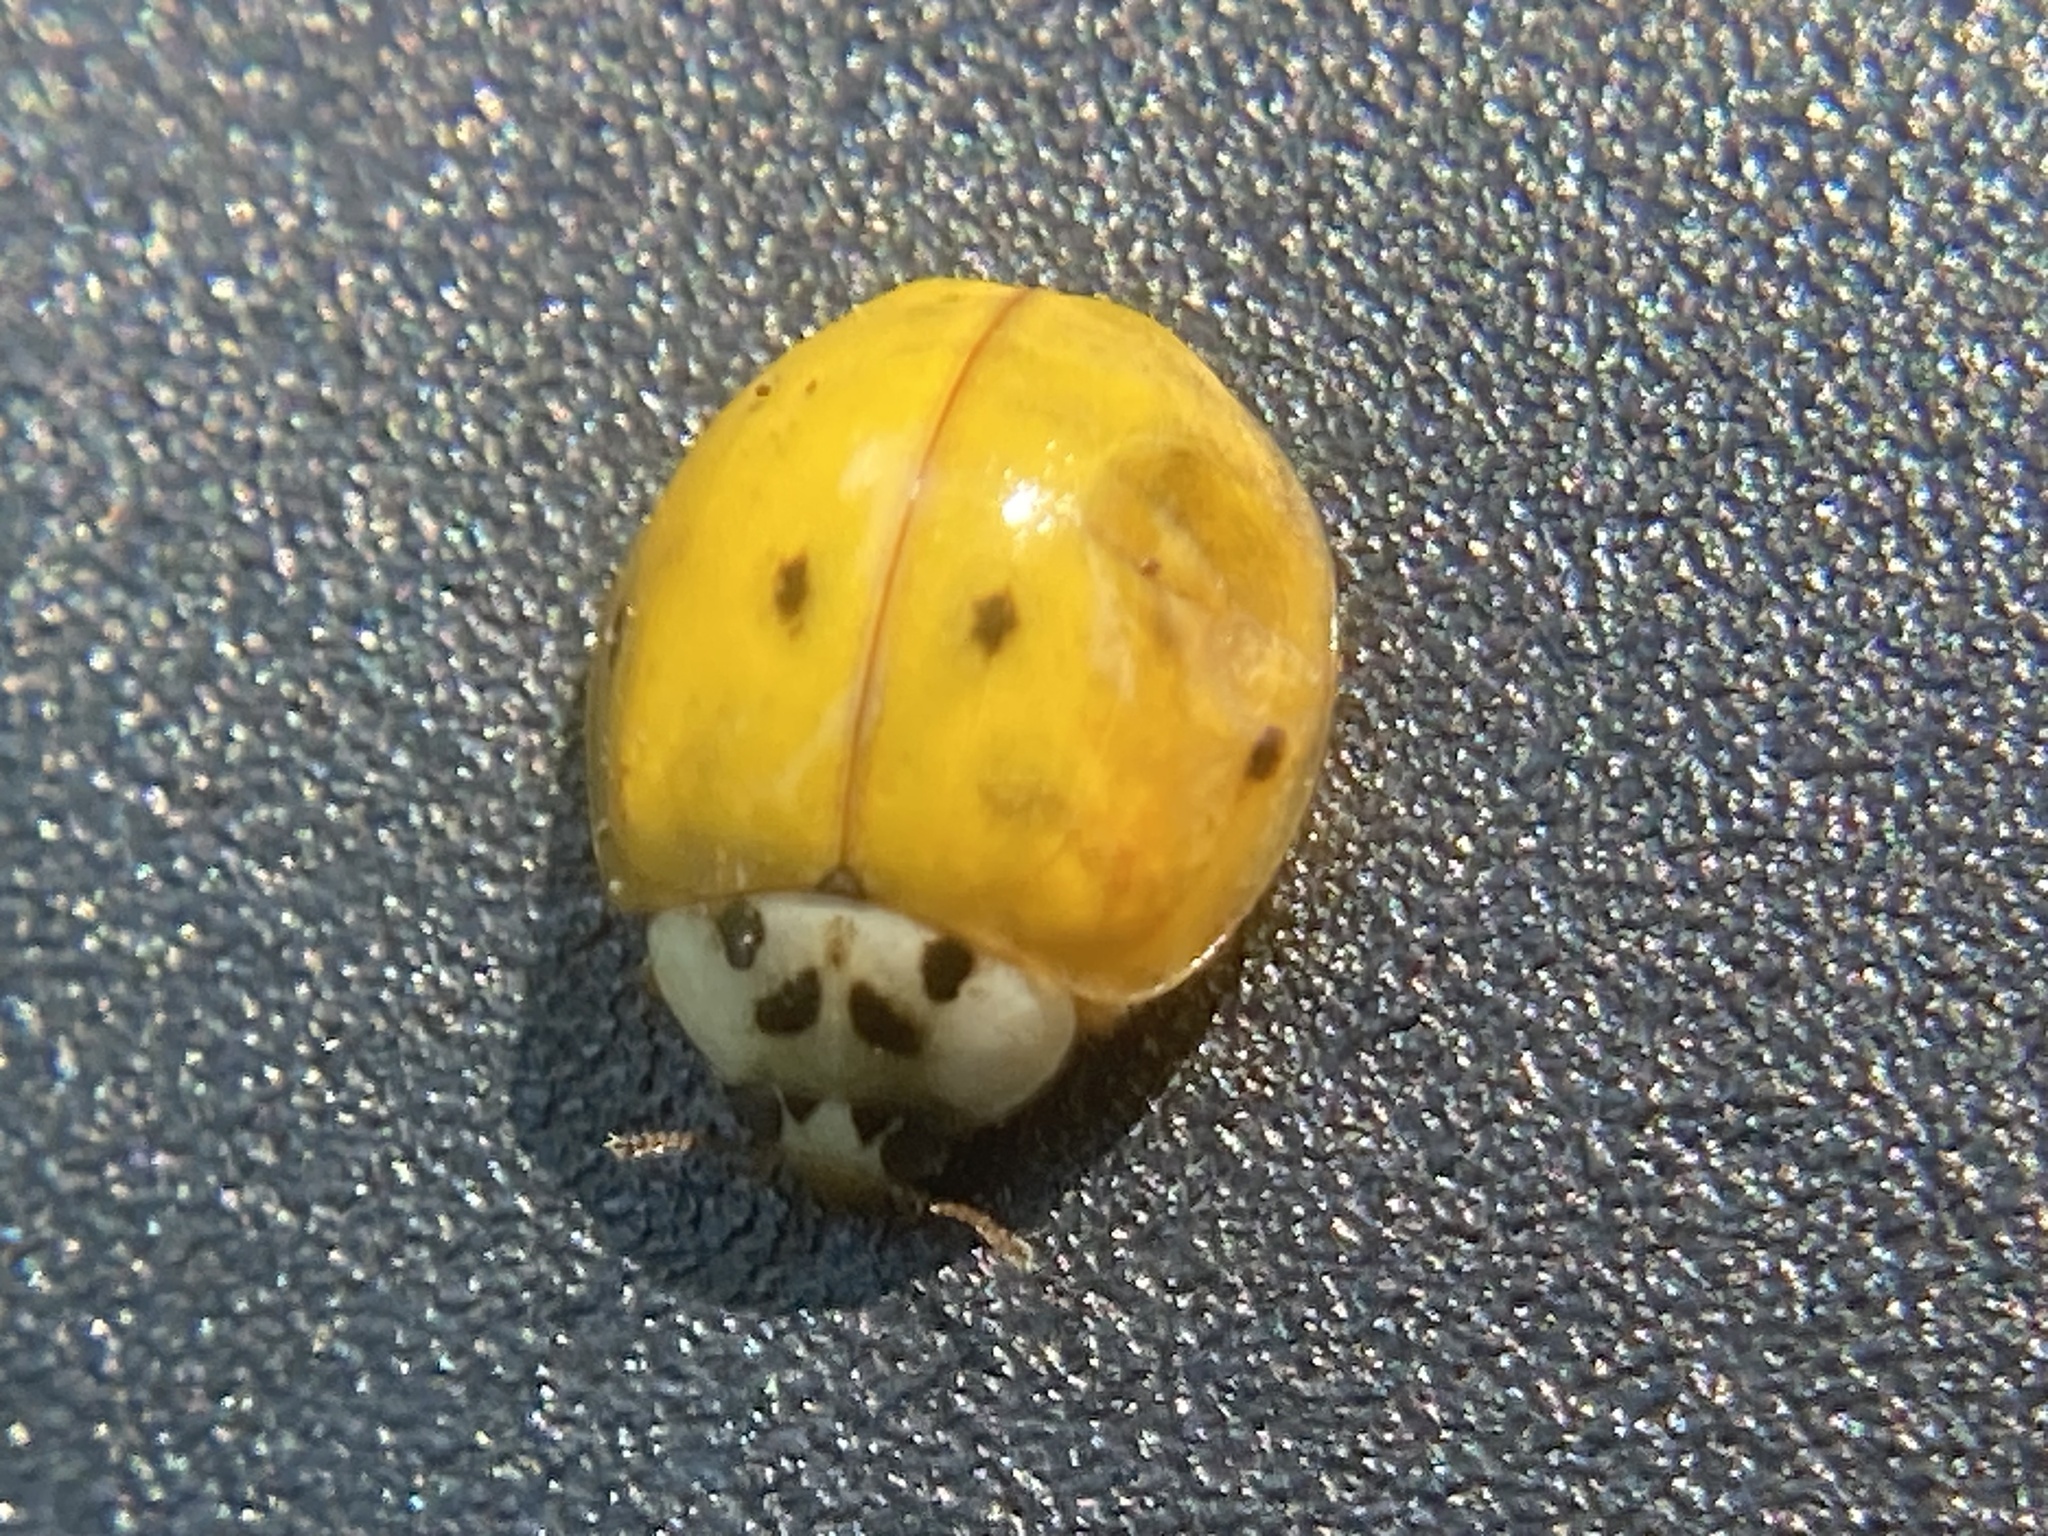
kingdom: Animalia
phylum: Arthropoda
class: Insecta
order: Coleoptera
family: Coccinellidae
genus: Harmonia
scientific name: Harmonia axyridis
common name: Harlequin ladybird
